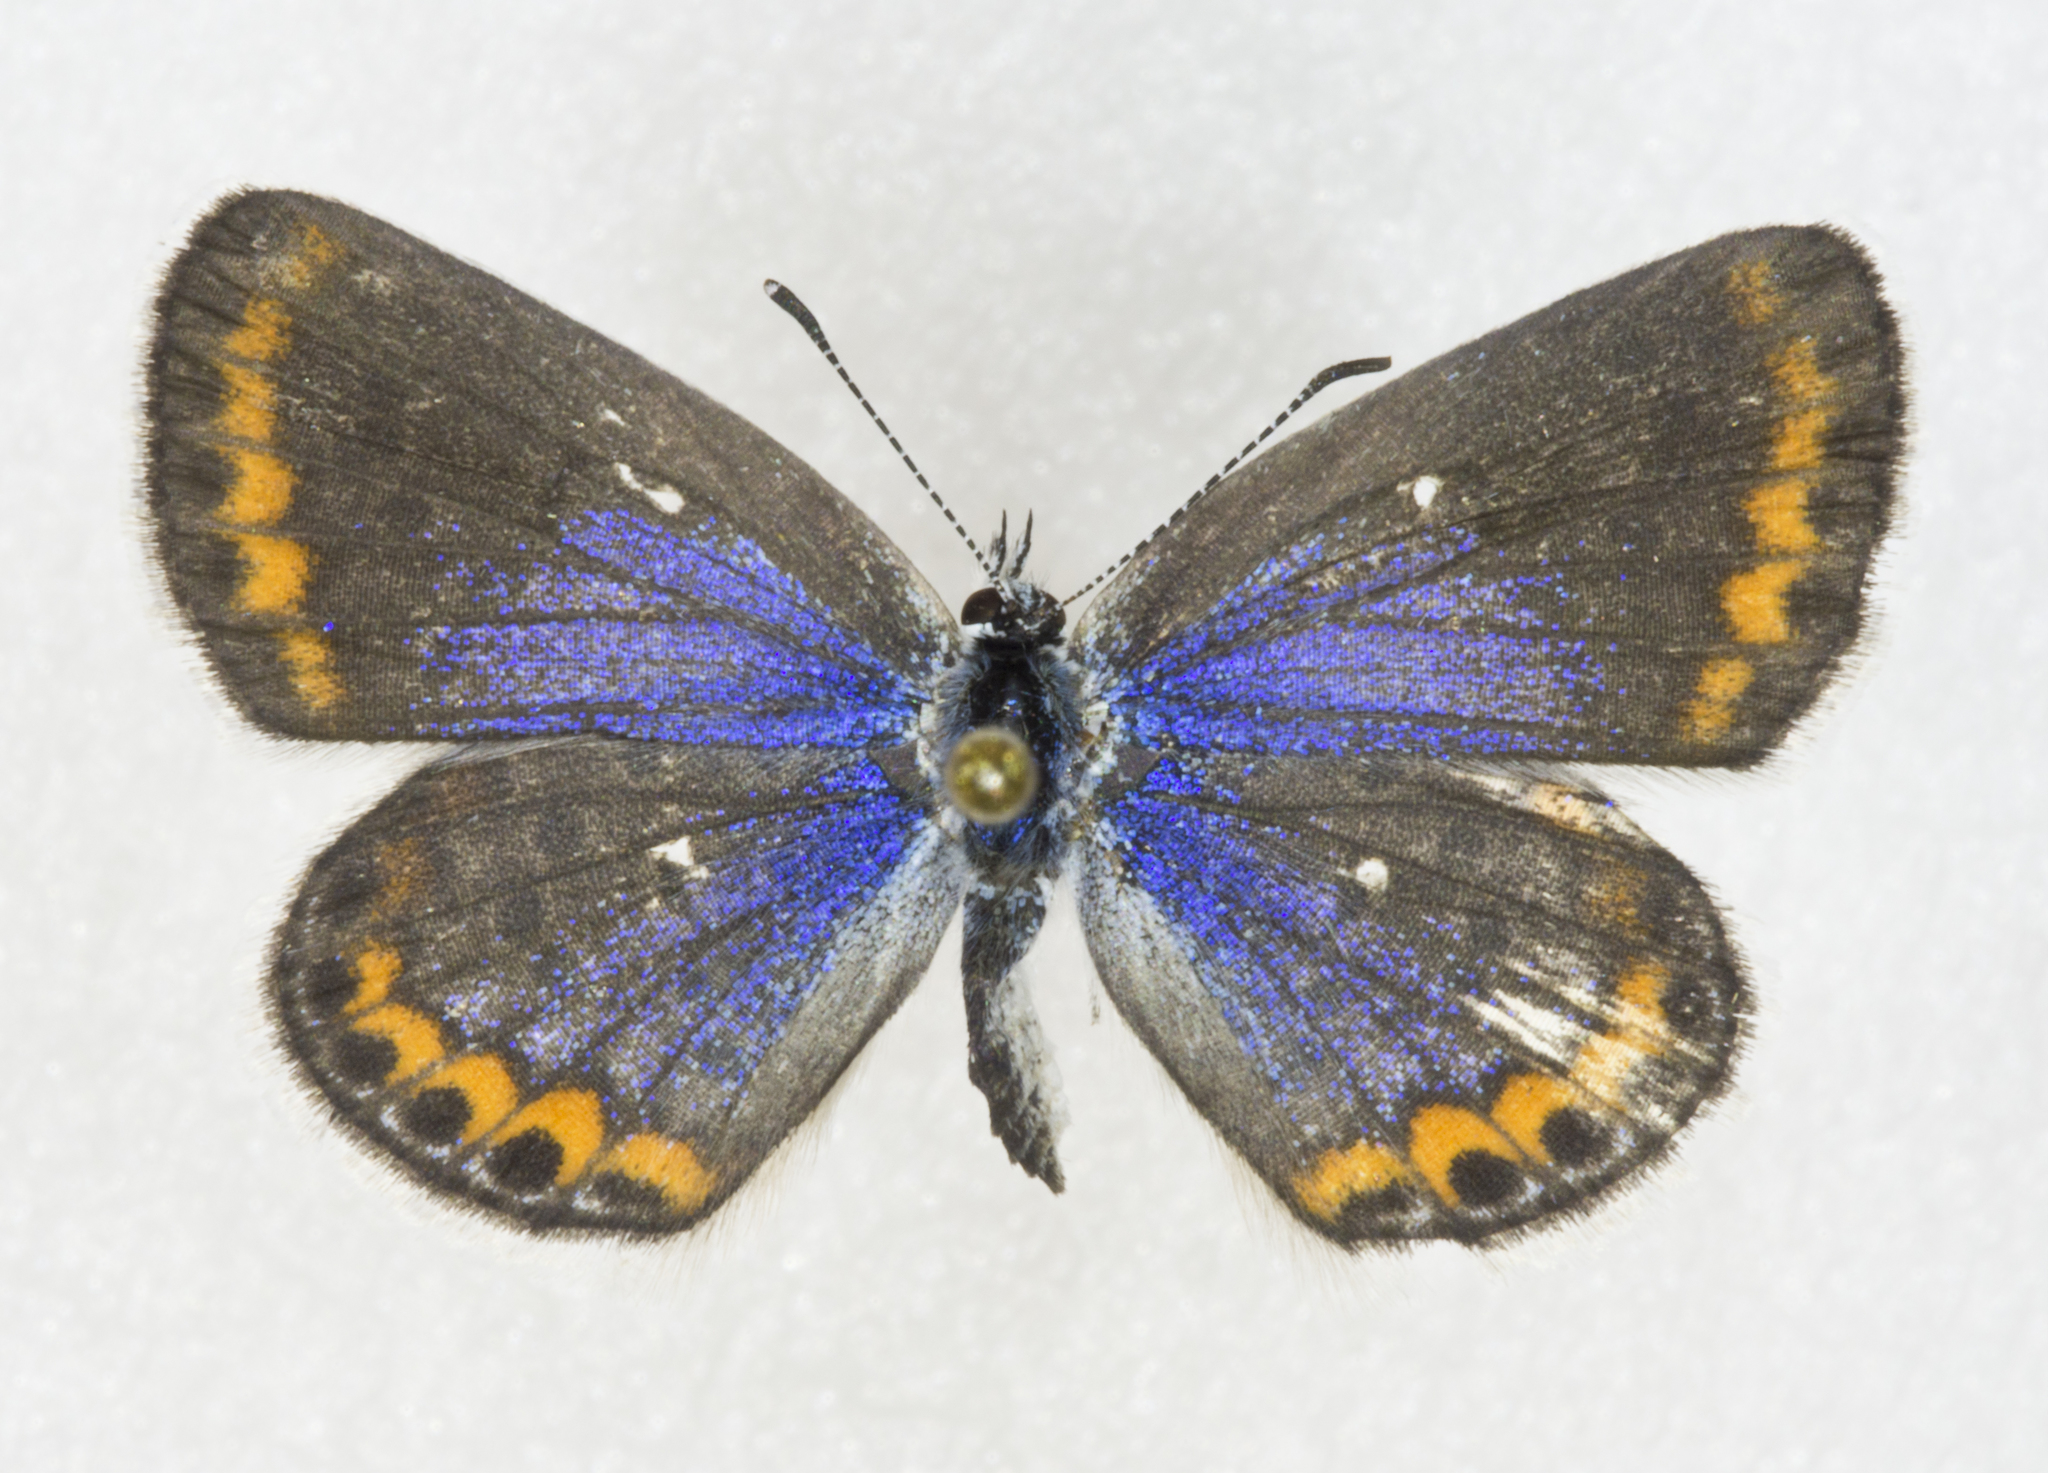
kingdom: Animalia
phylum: Arthropoda
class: Insecta
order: Lepidoptera
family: Lycaenidae
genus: Lycaeides
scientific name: Lycaeides melissa
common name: Melissa blue
